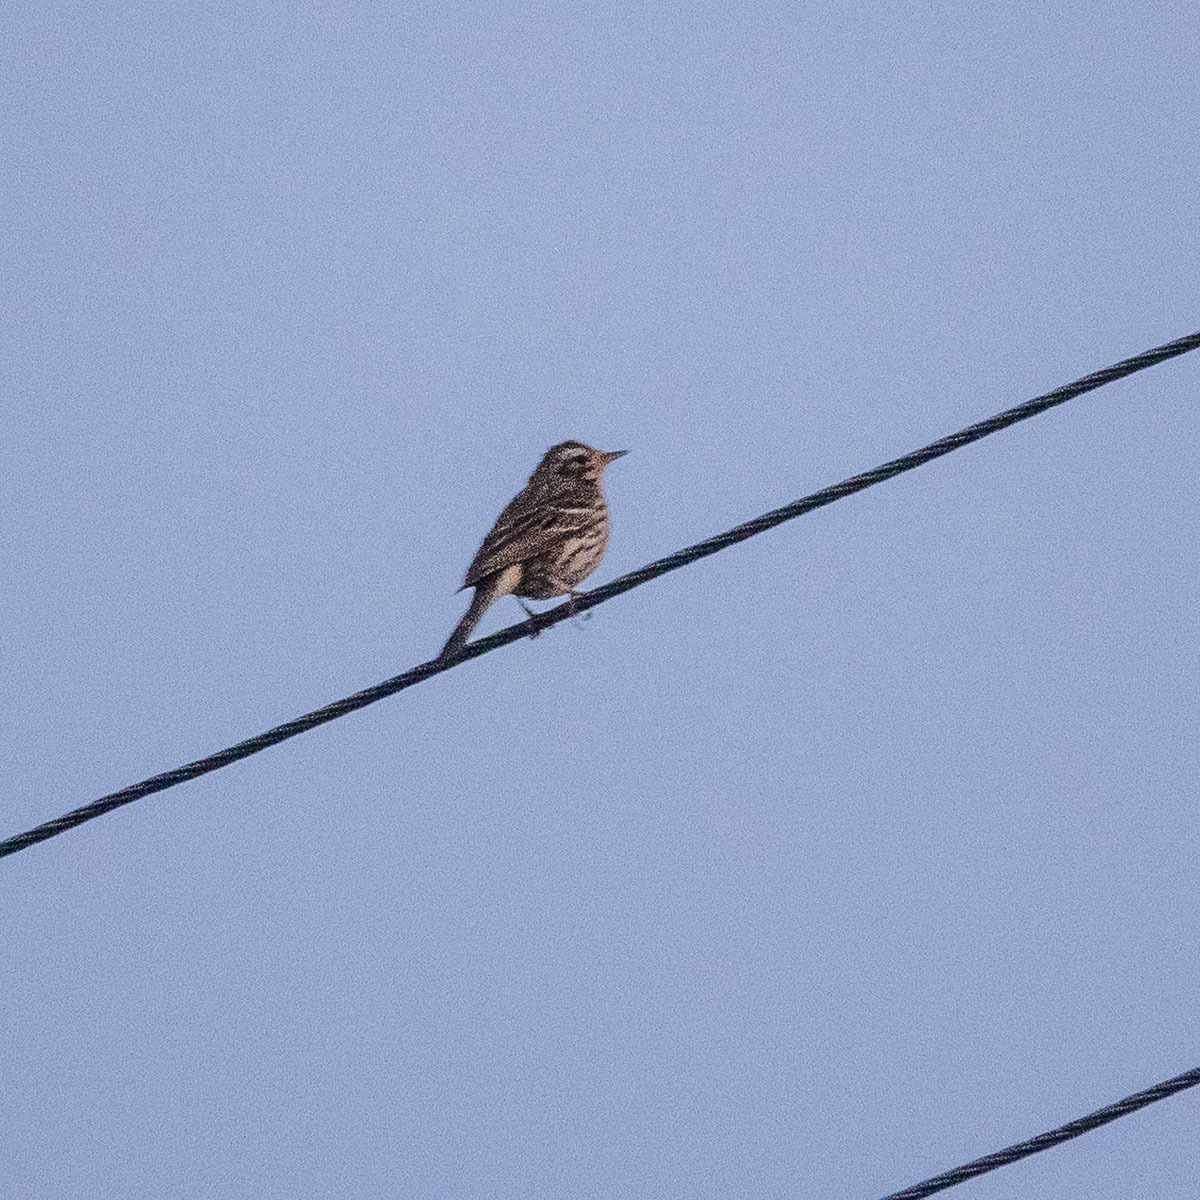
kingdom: Animalia
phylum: Chordata
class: Aves
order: Passeriformes
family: Motacillidae
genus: Anthus
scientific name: Anthus roseatus
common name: Rosy pipit
